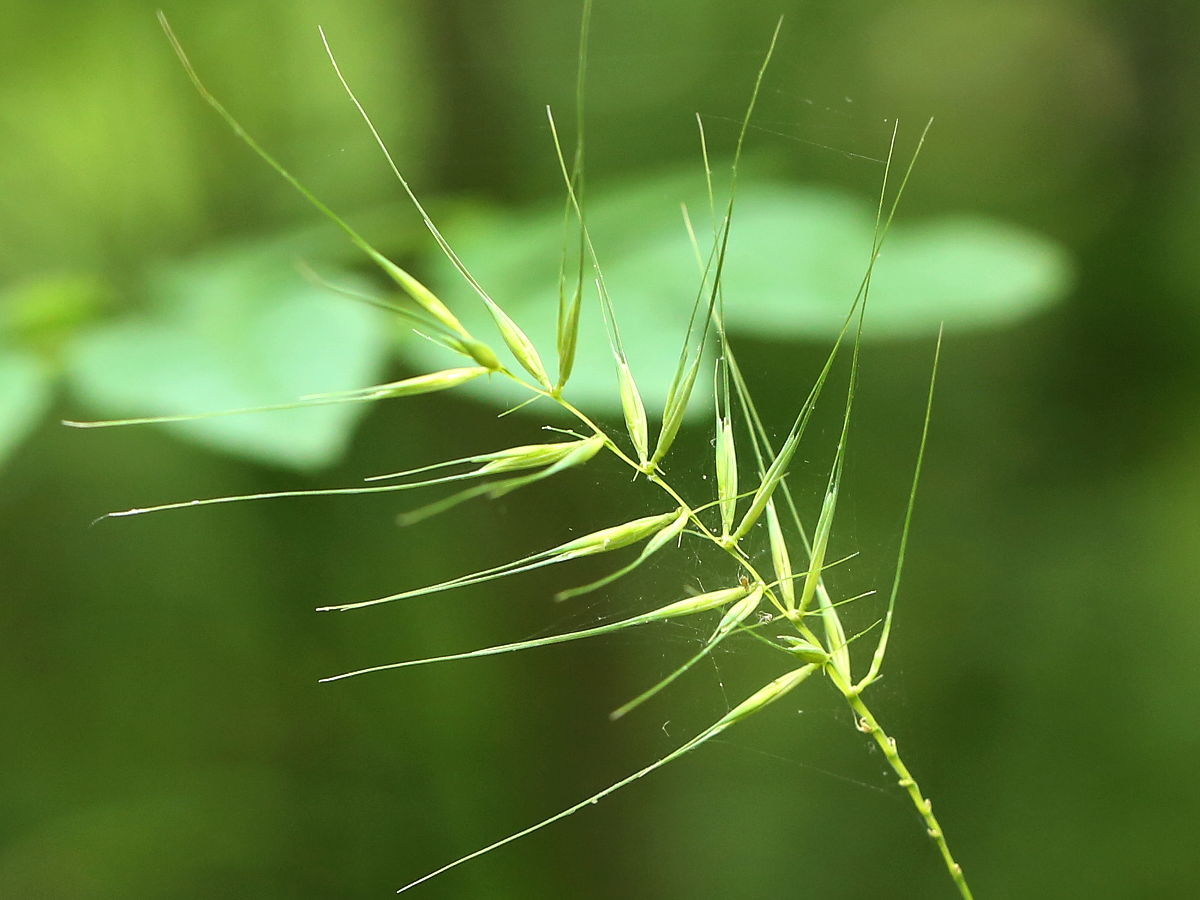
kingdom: Plantae
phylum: Tracheophyta
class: Liliopsida
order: Poales
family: Poaceae
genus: Elymus
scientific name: Elymus hystrix
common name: Bottlebrush grass
